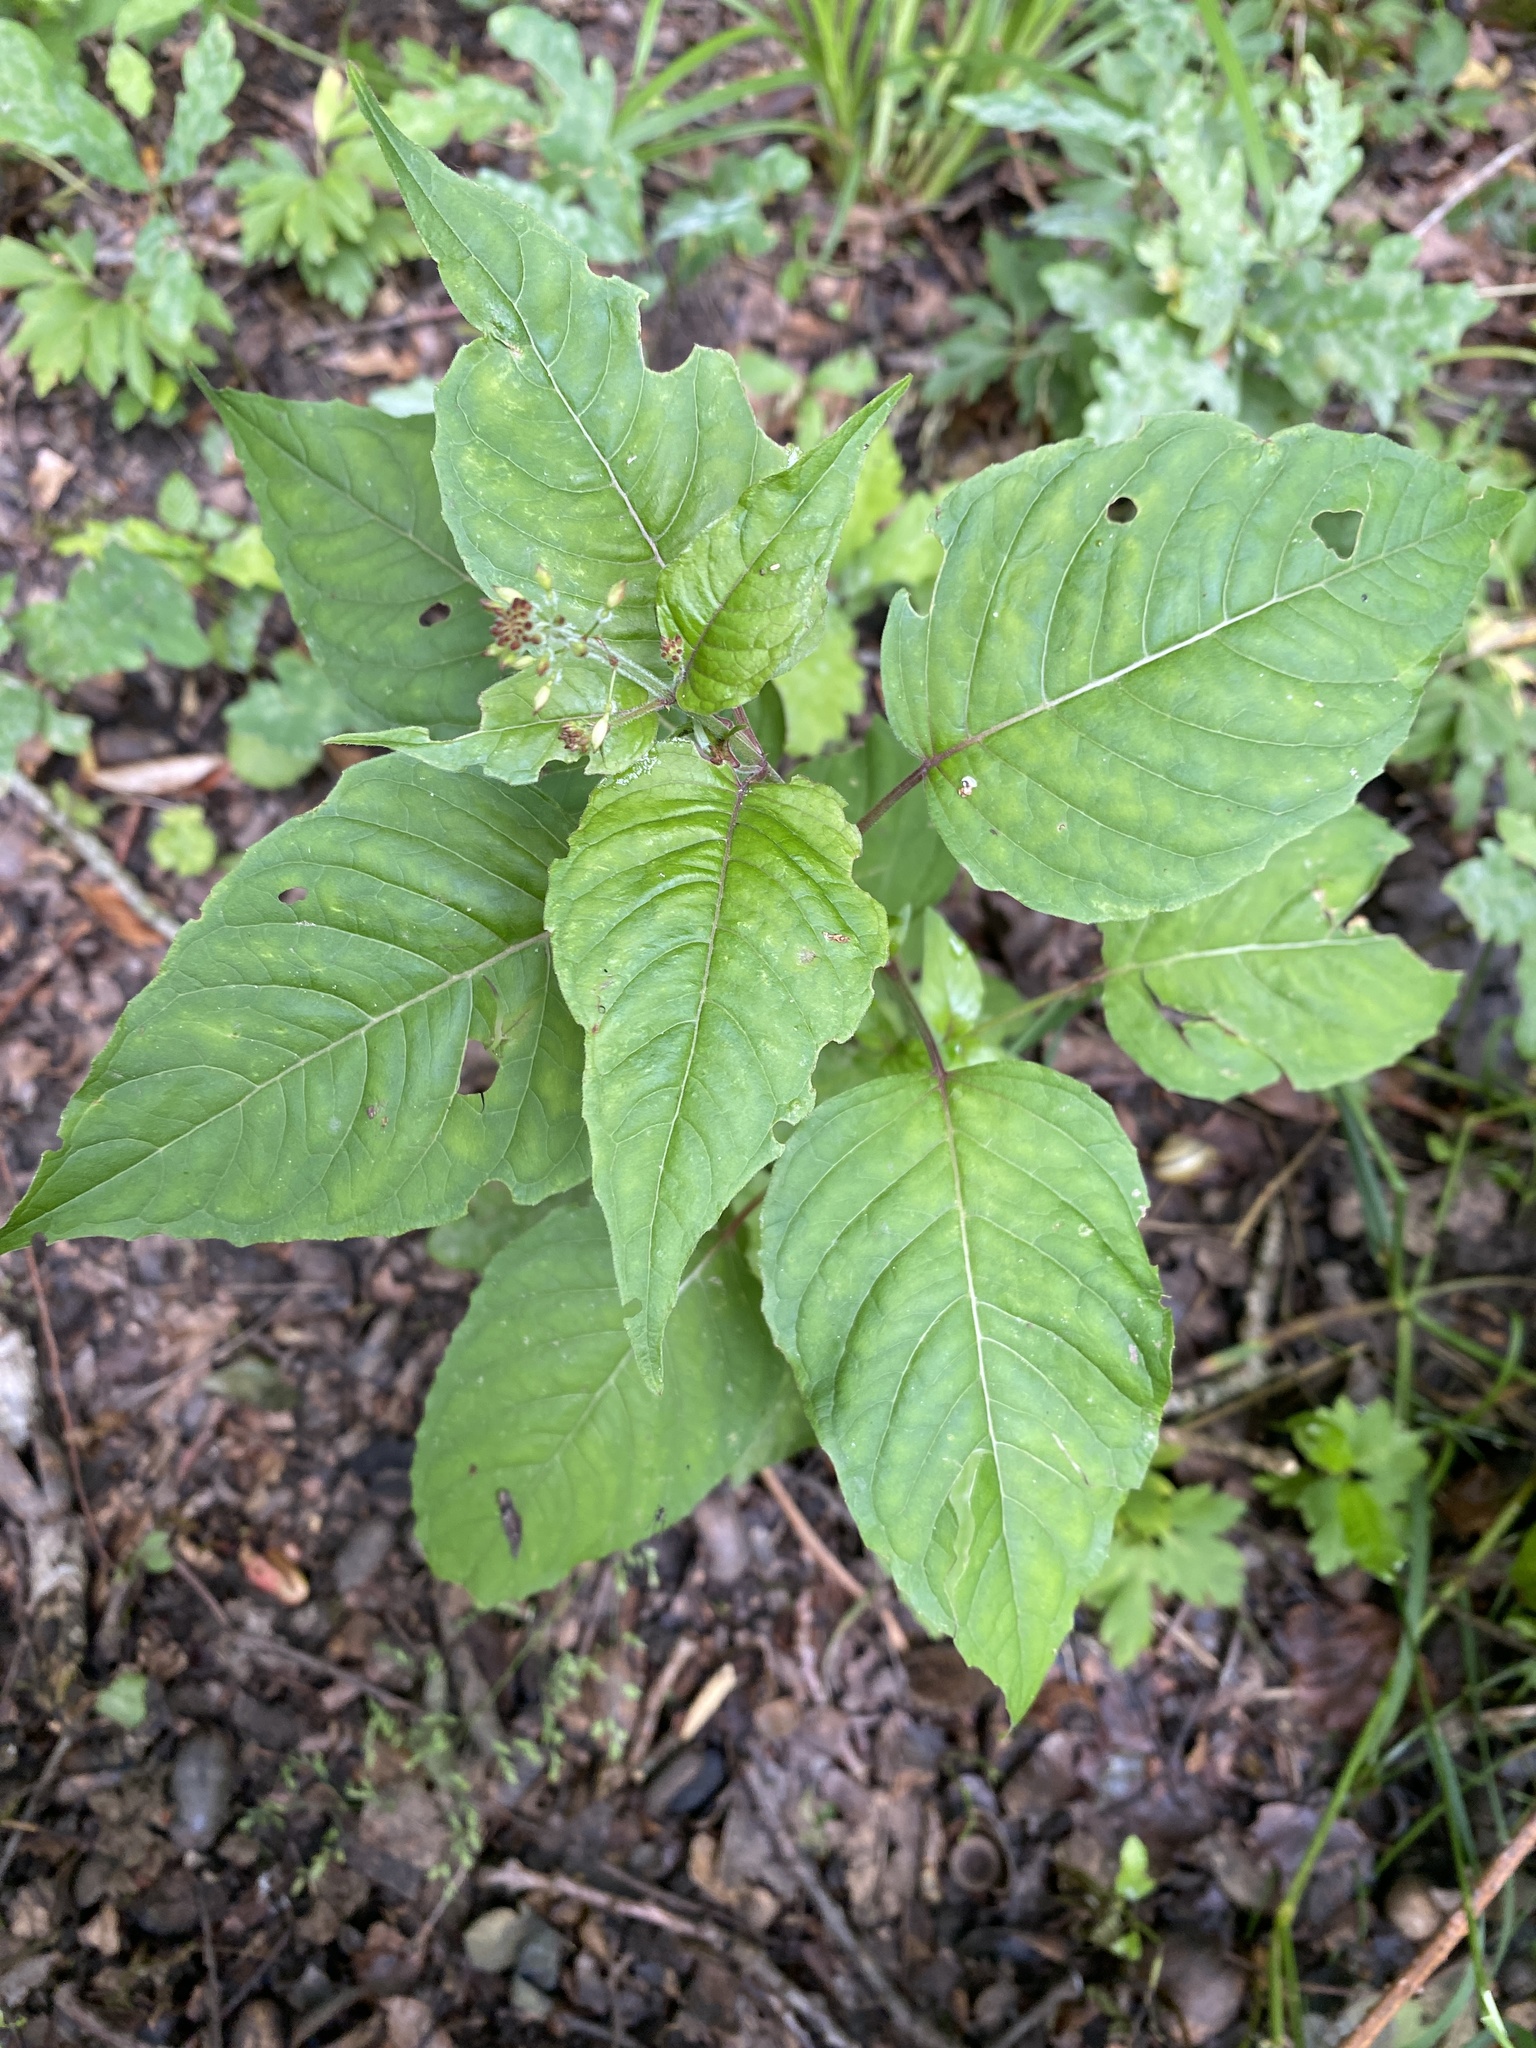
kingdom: Plantae
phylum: Tracheophyta
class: Magnoliopsida
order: Myrtales
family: Onagraceae
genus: Circaea
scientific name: Circaea lutetiana
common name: Enchanter's-nightshade
